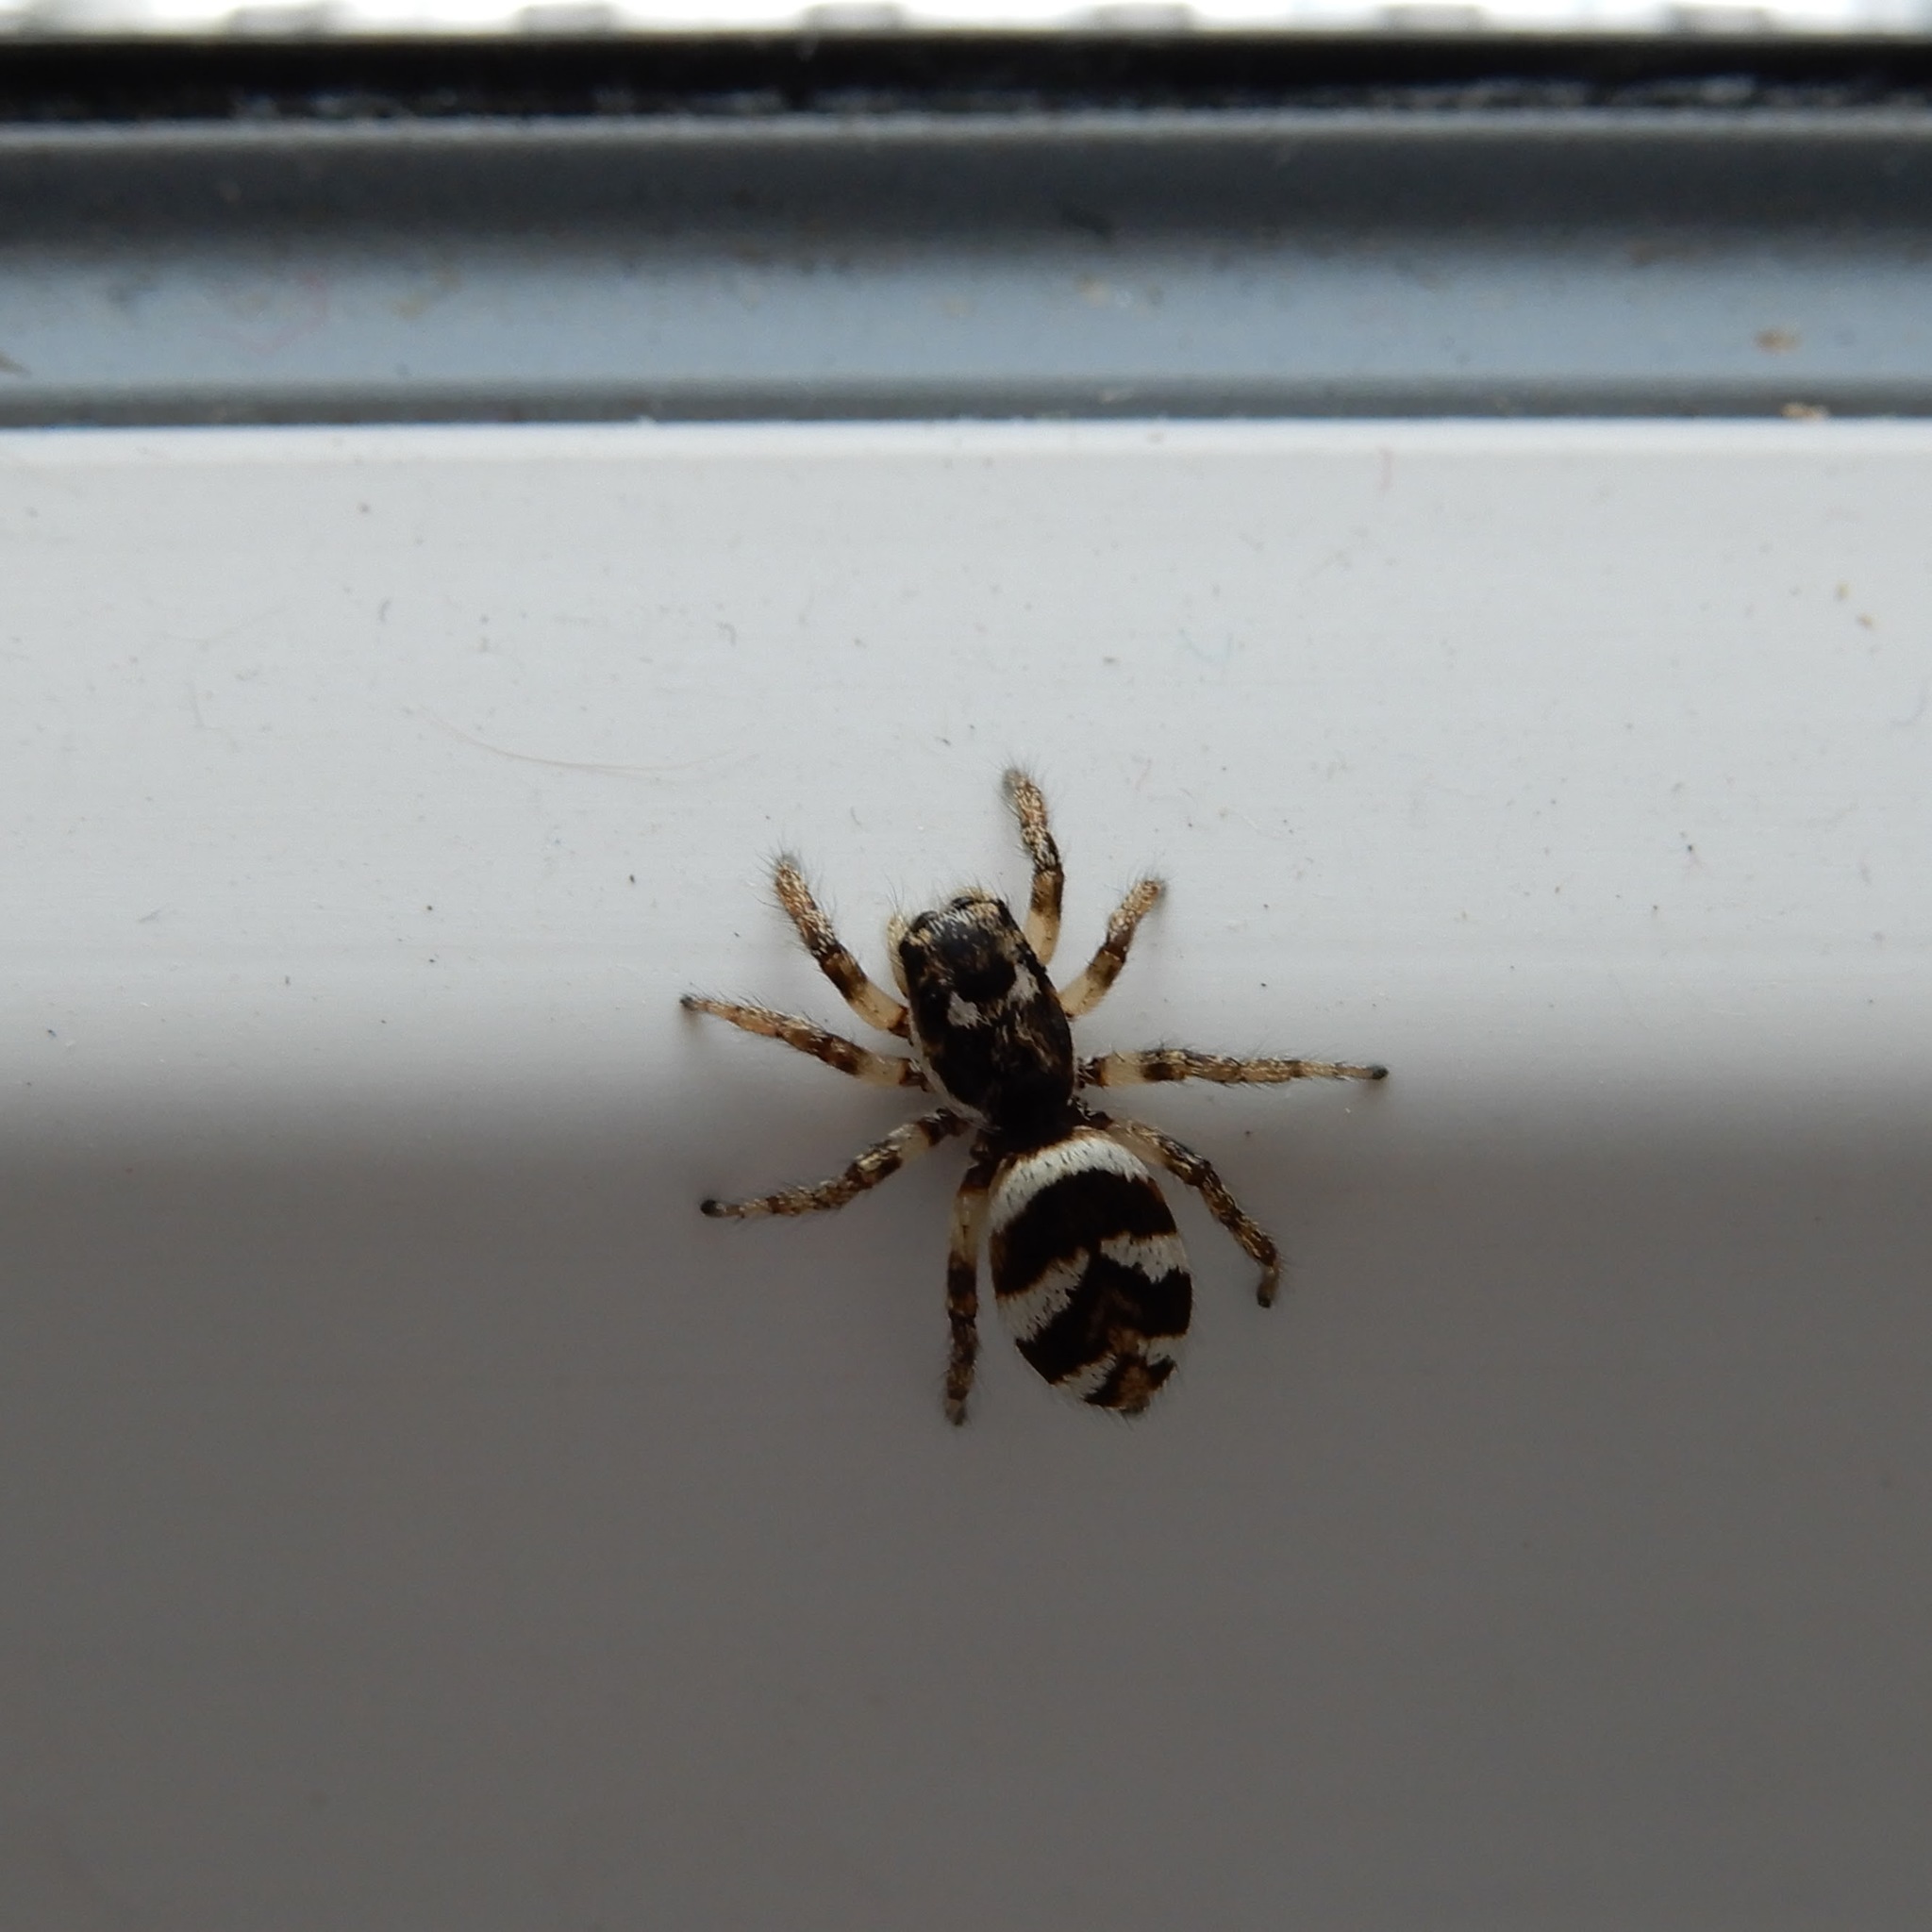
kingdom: Animalia
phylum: Arthropoda
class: Arachnida
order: Araneae
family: Salticidae
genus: Salticus
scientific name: Salticus scenicus
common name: Zebra jumper
